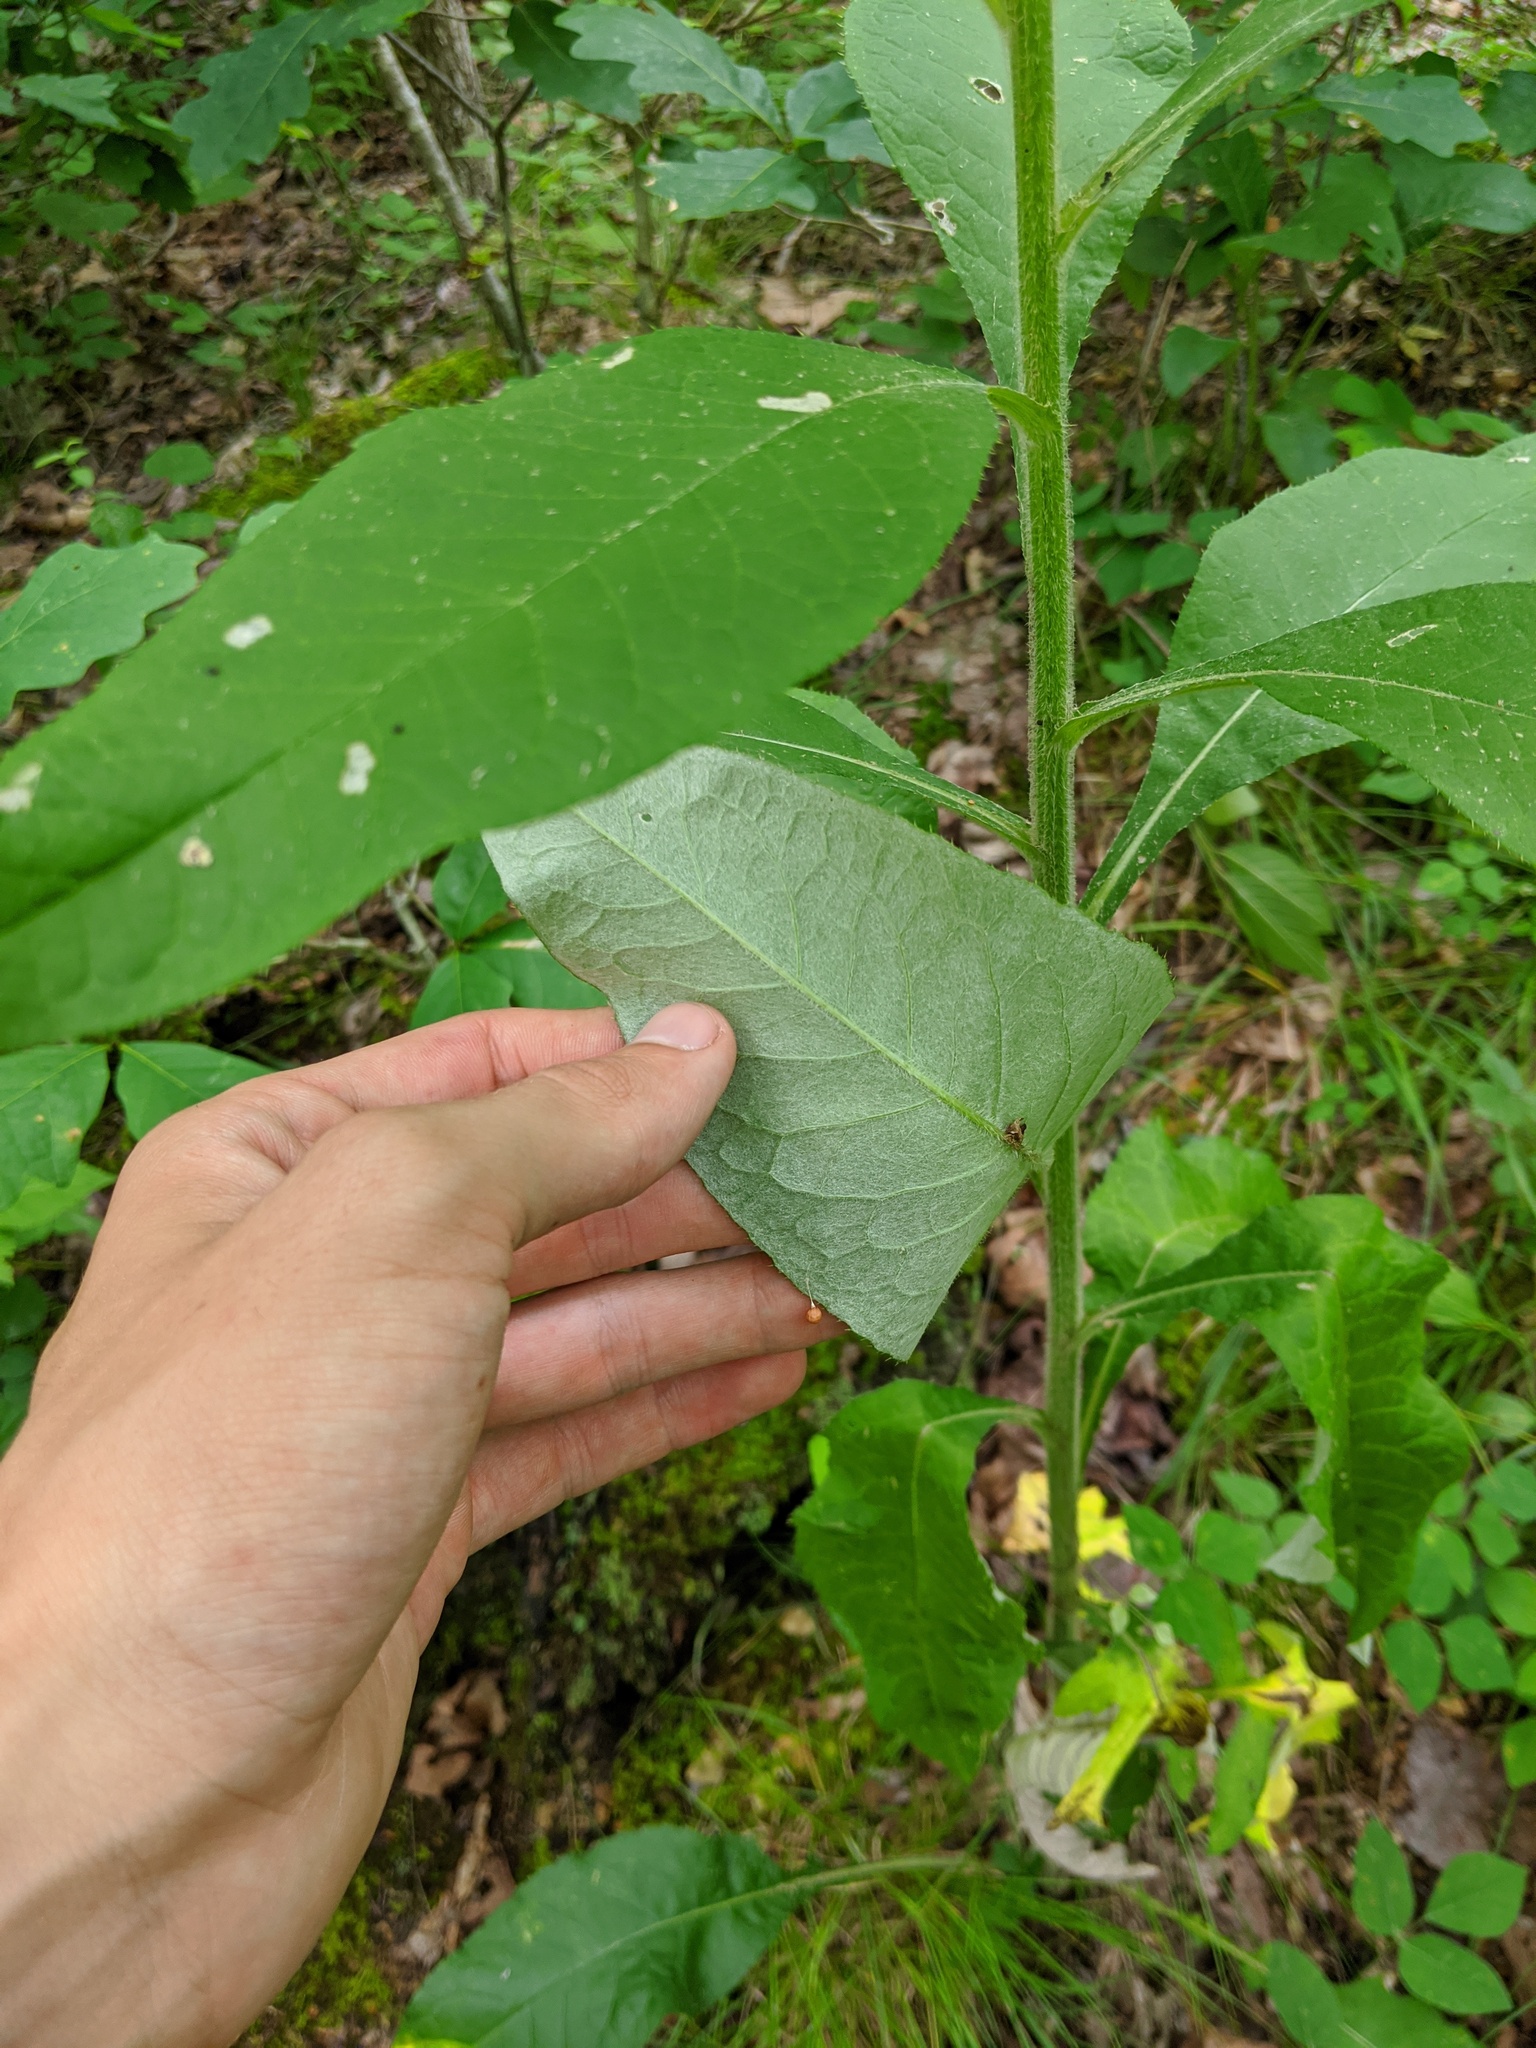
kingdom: Plantae
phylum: Tracheophyta
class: Magnoliopsida
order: Asterales
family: Asteraceae
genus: Cirsium
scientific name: Cirsium altissimum
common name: Roadside thistle
